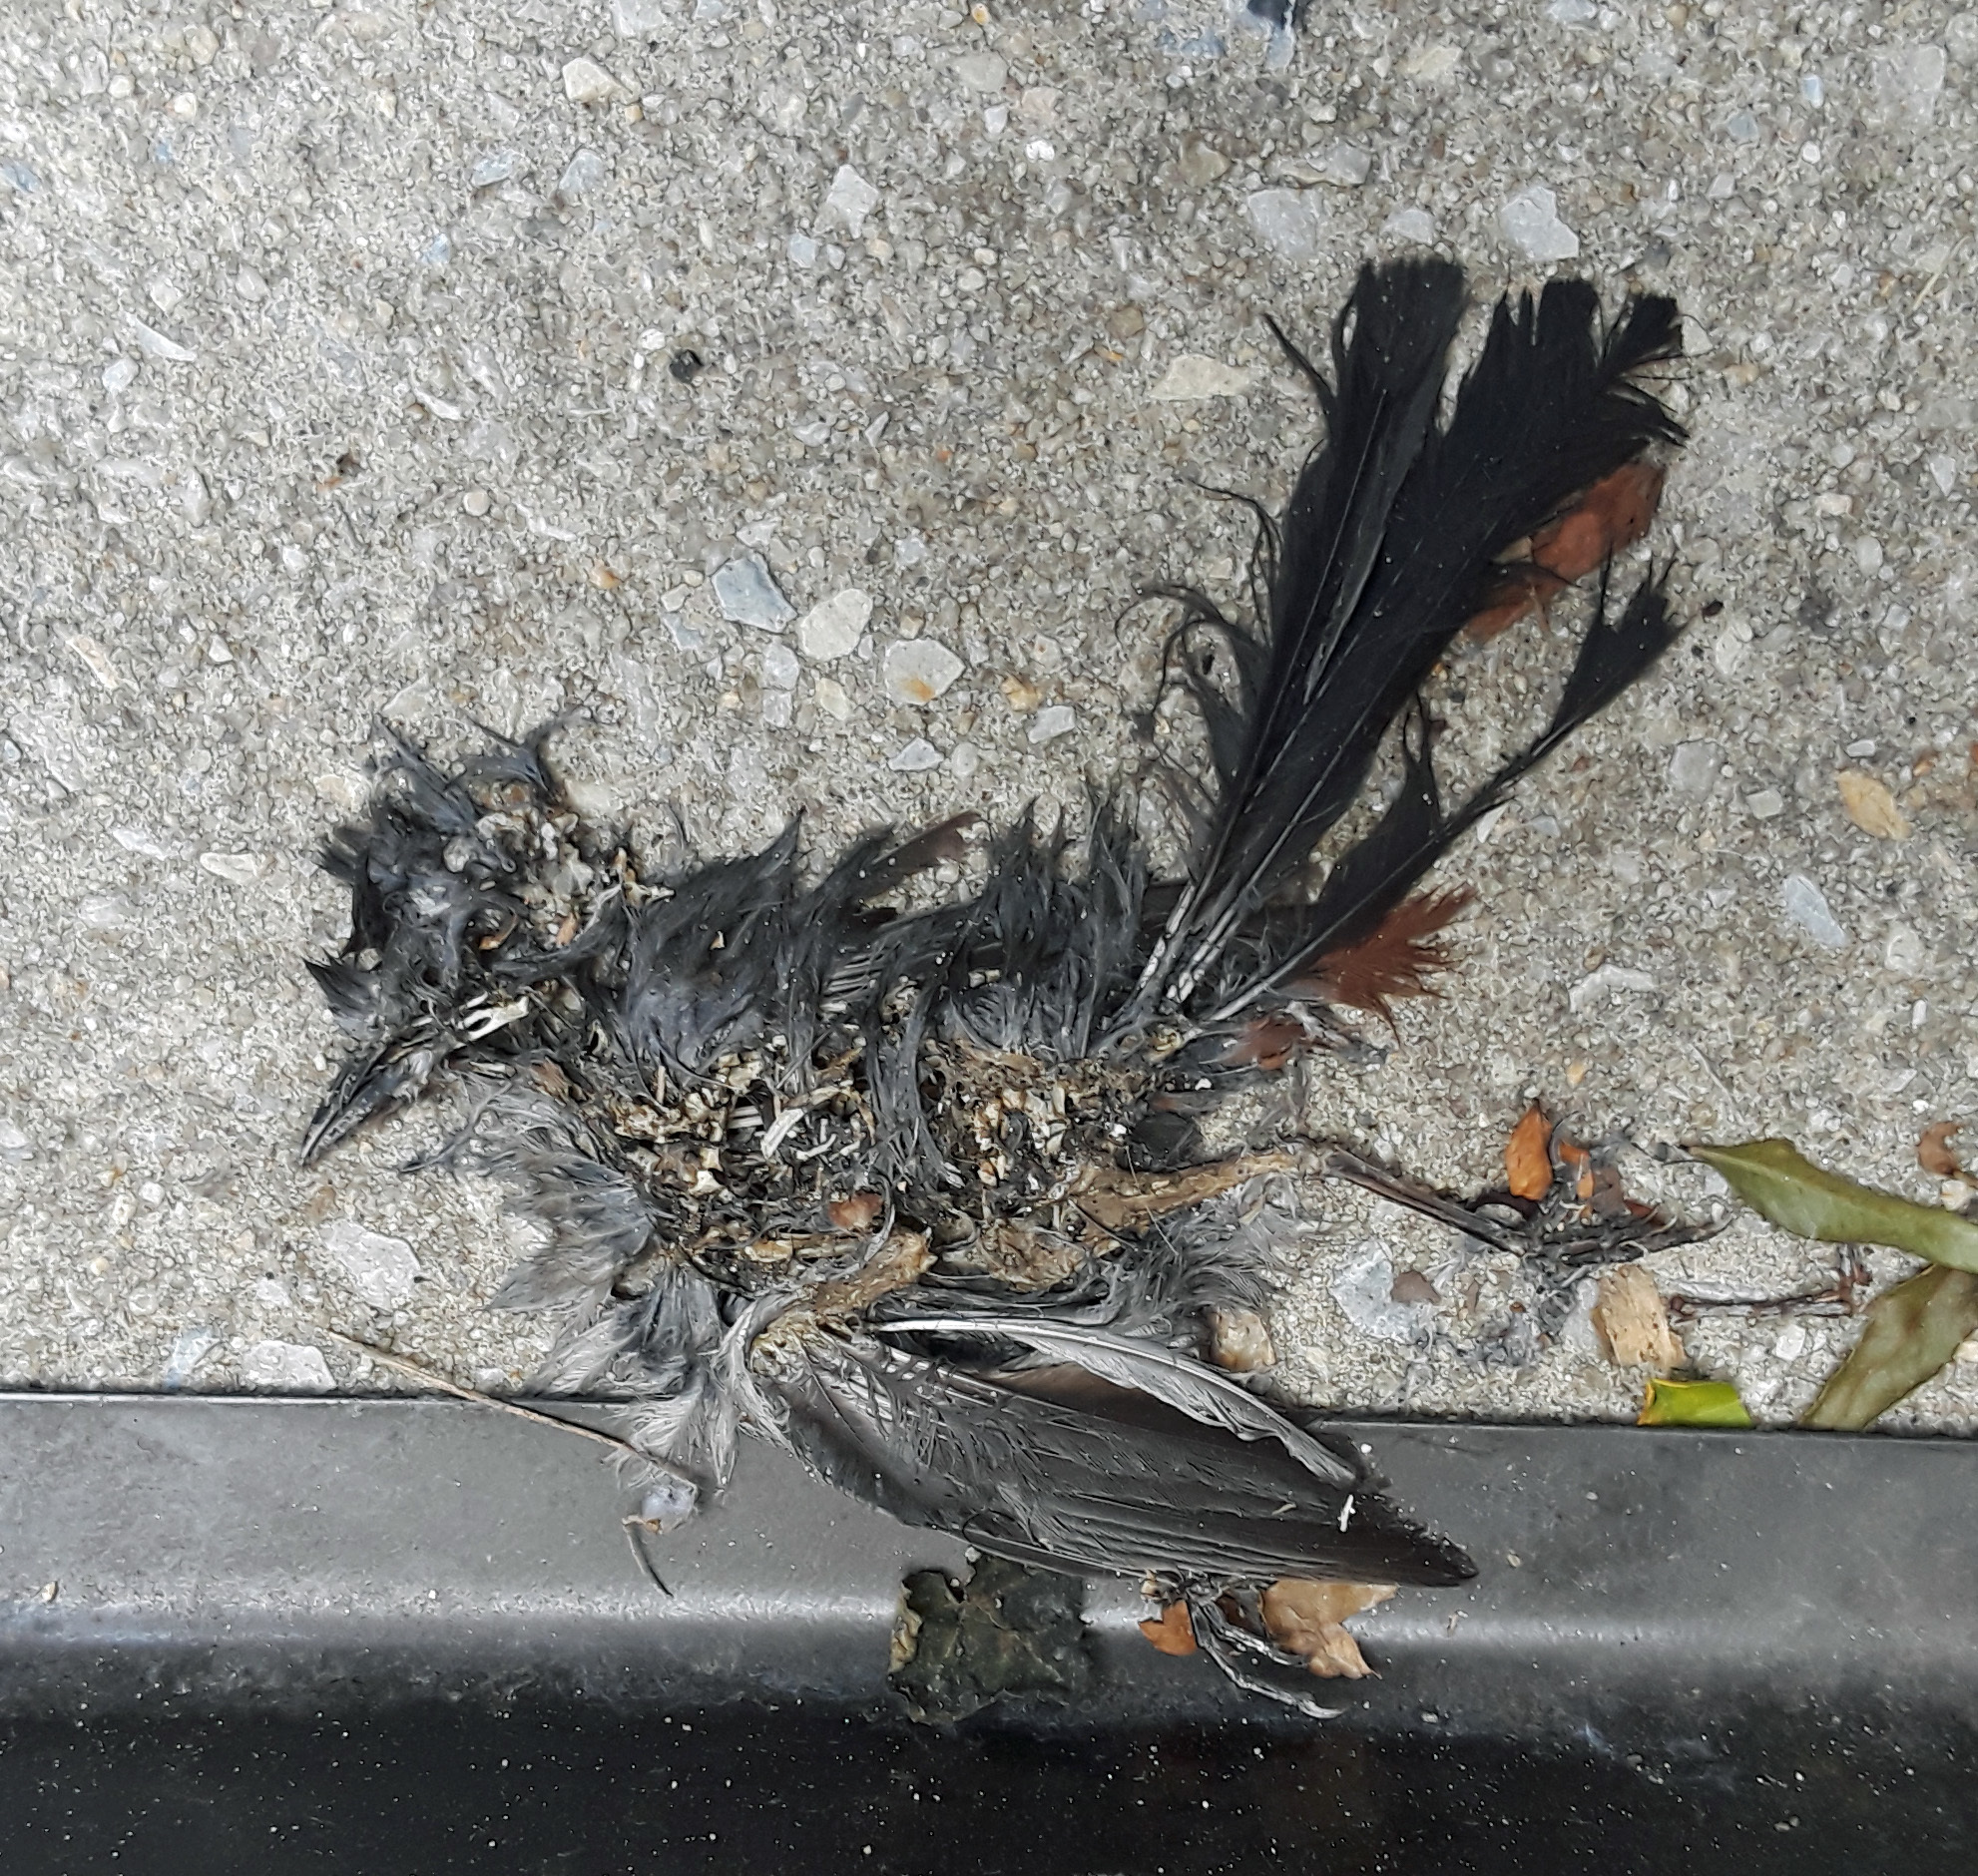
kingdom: Animalia
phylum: Chordata
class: Aves
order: Passeriformes
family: Mimidae
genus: Dumetella
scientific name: Dumetella carolinensis
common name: Gray catbird
